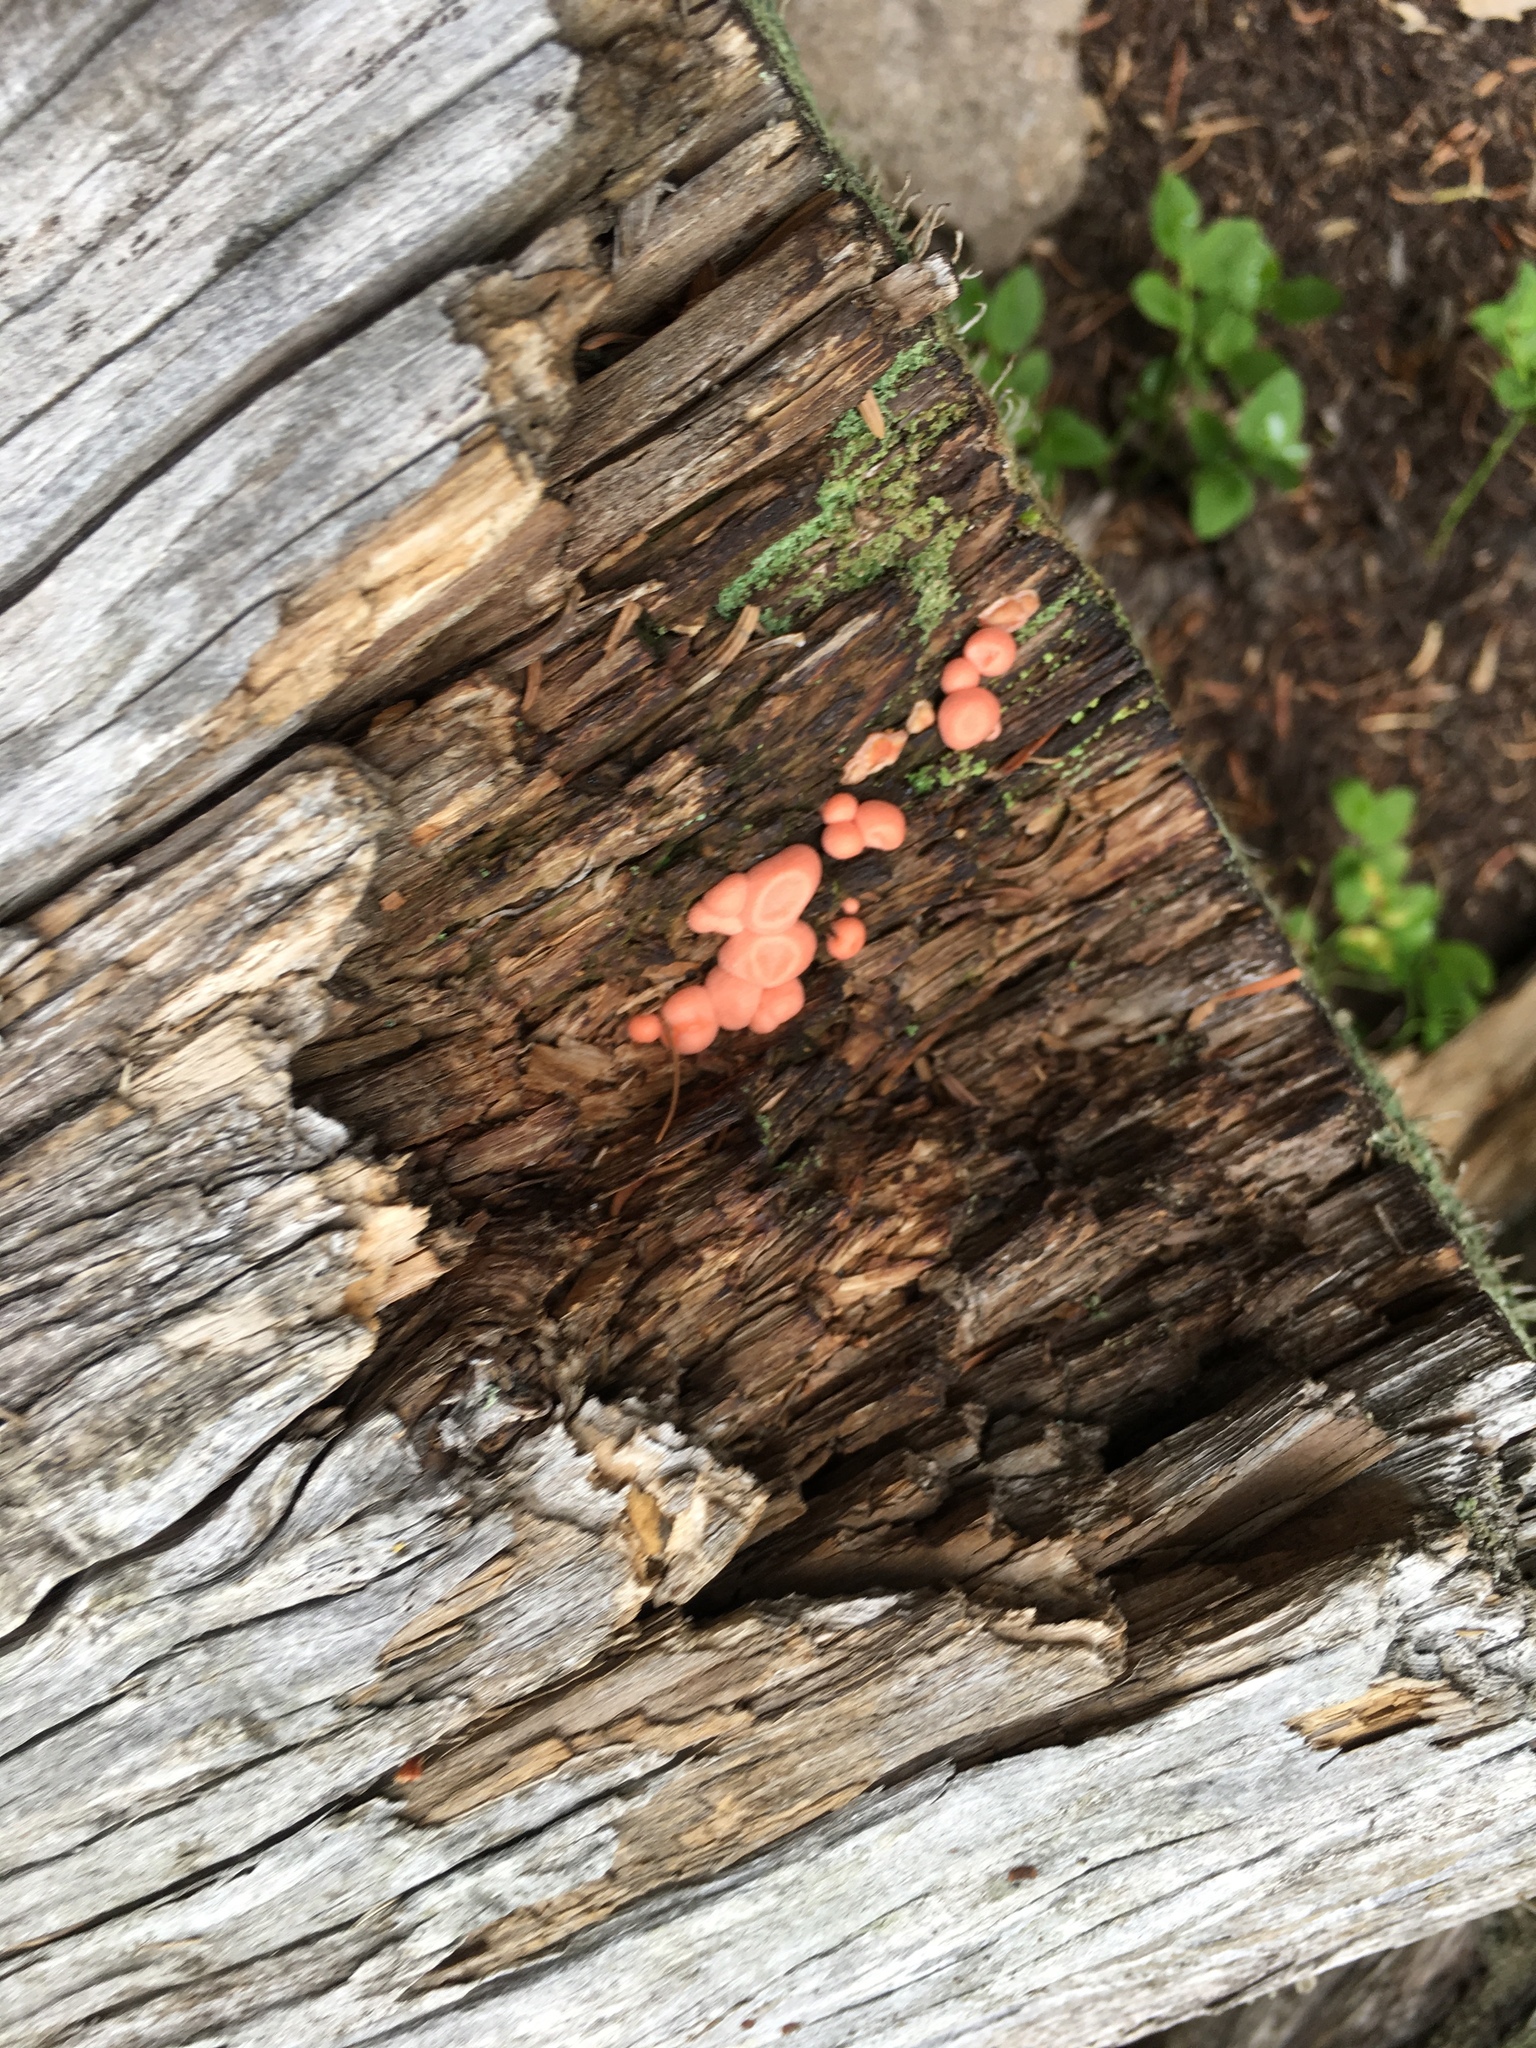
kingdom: Protozoa
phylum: Mycetozoa
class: Myxomycetes
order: Cribrariales
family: Tubiferaceae
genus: Lycogala
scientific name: Lycogala epidendrum
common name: Wolf's milk
